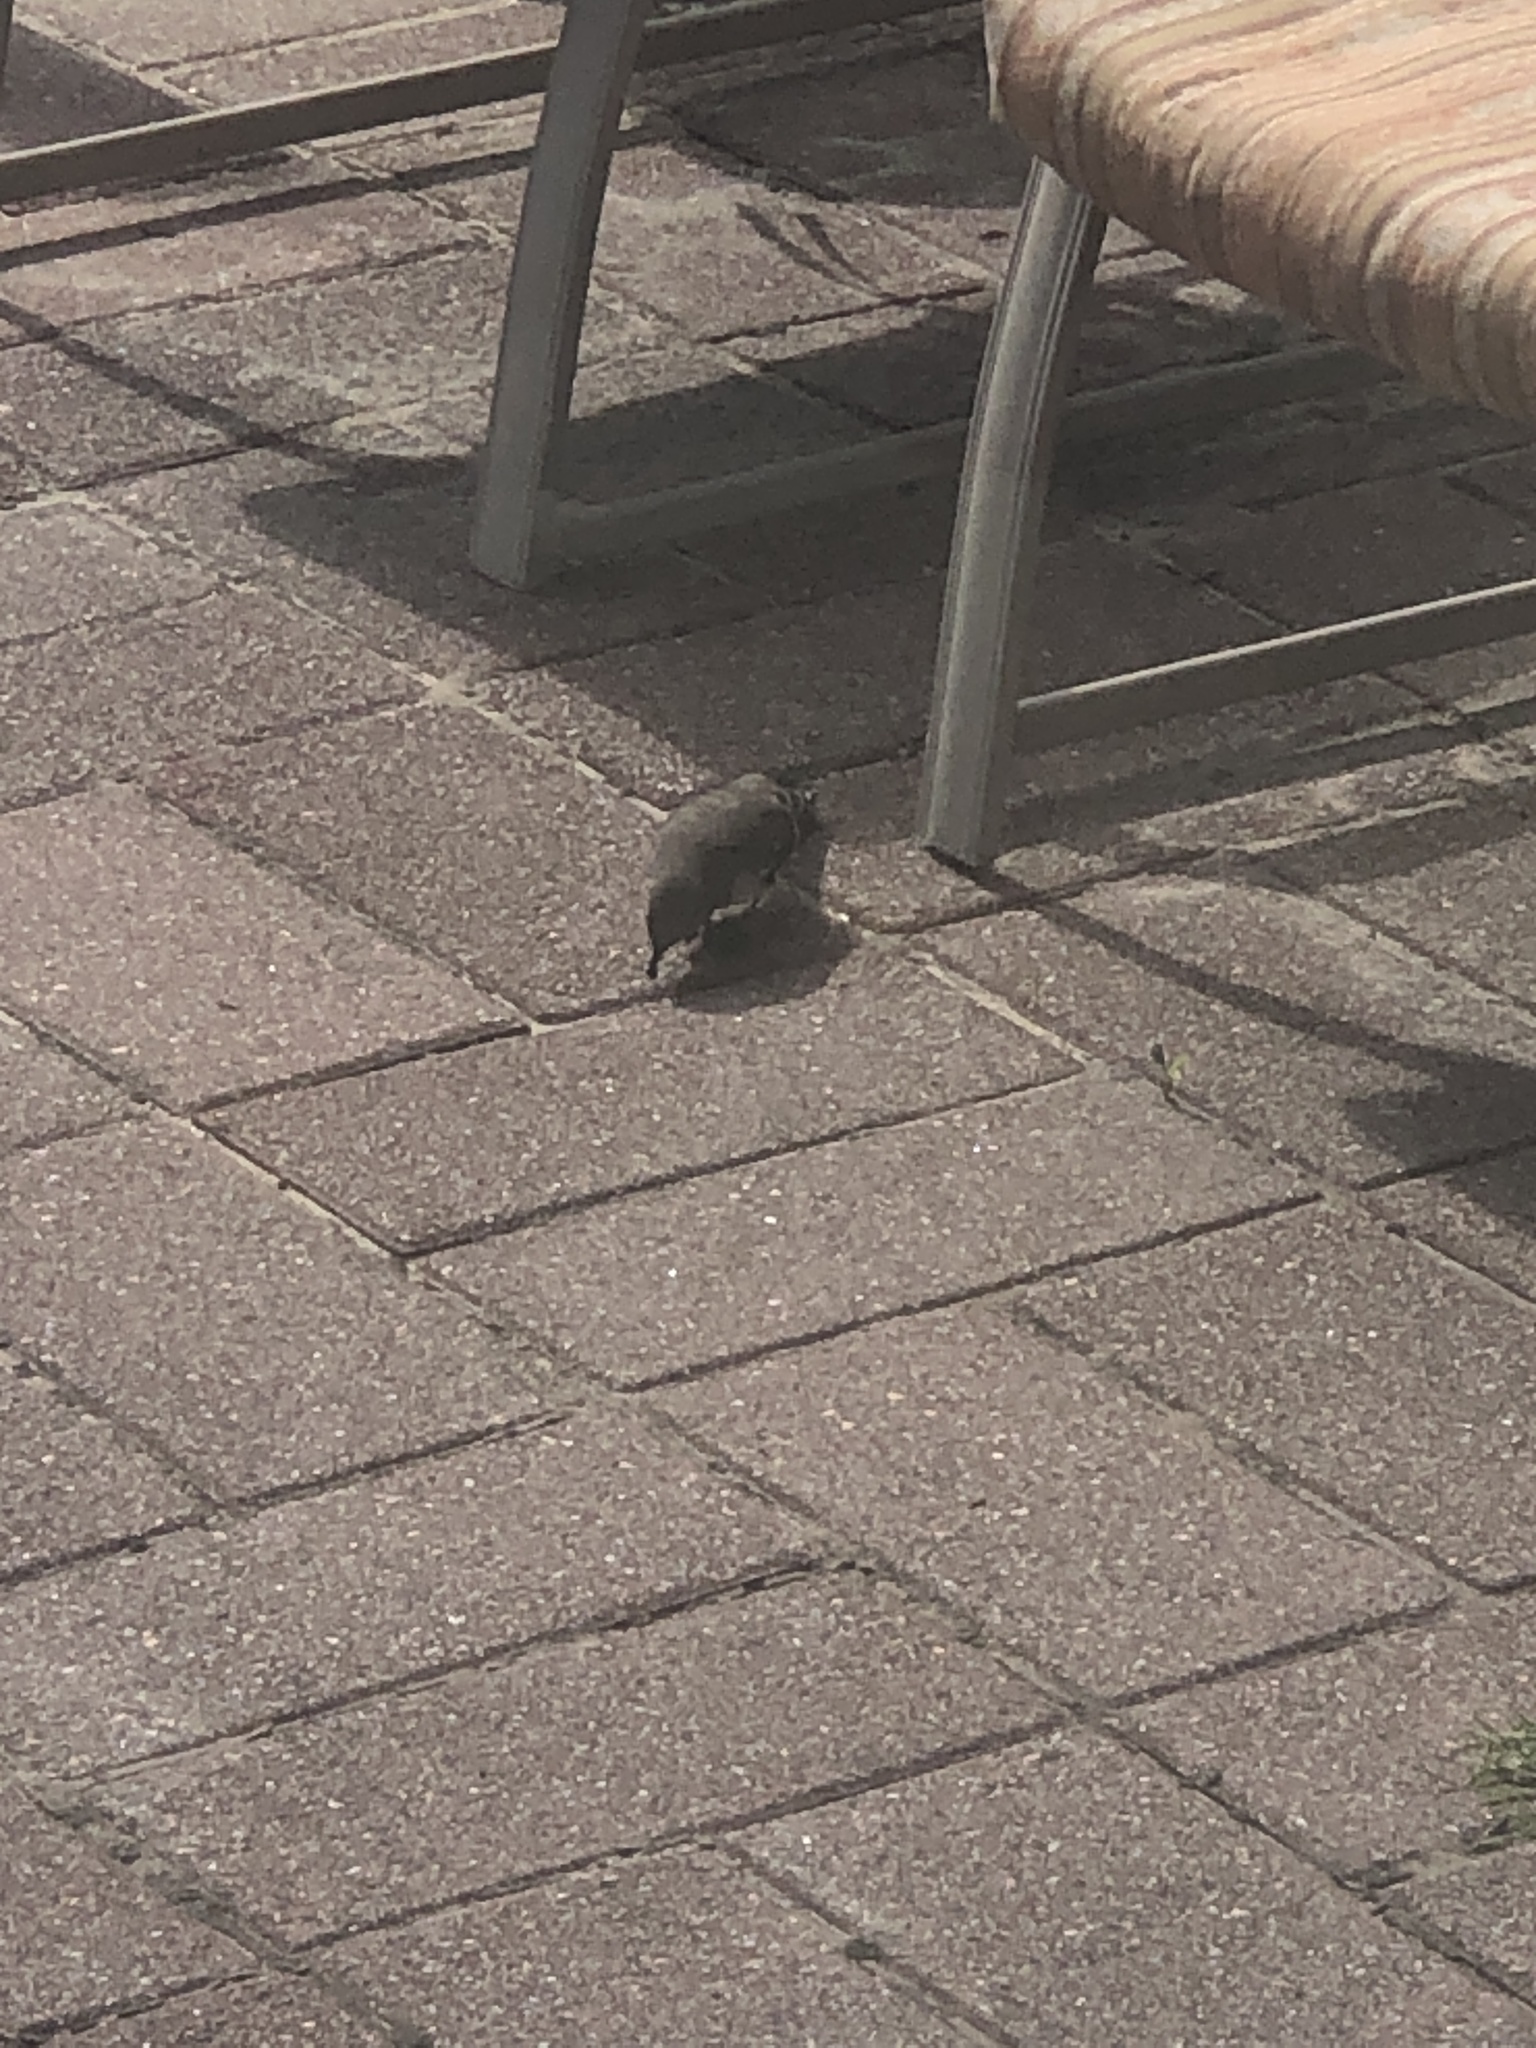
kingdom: Animalia
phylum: Chordata
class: Aves
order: Passeriformes
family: Mimidae
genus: Mimus
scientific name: Mimus polyglottos
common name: Northern mockingbird
